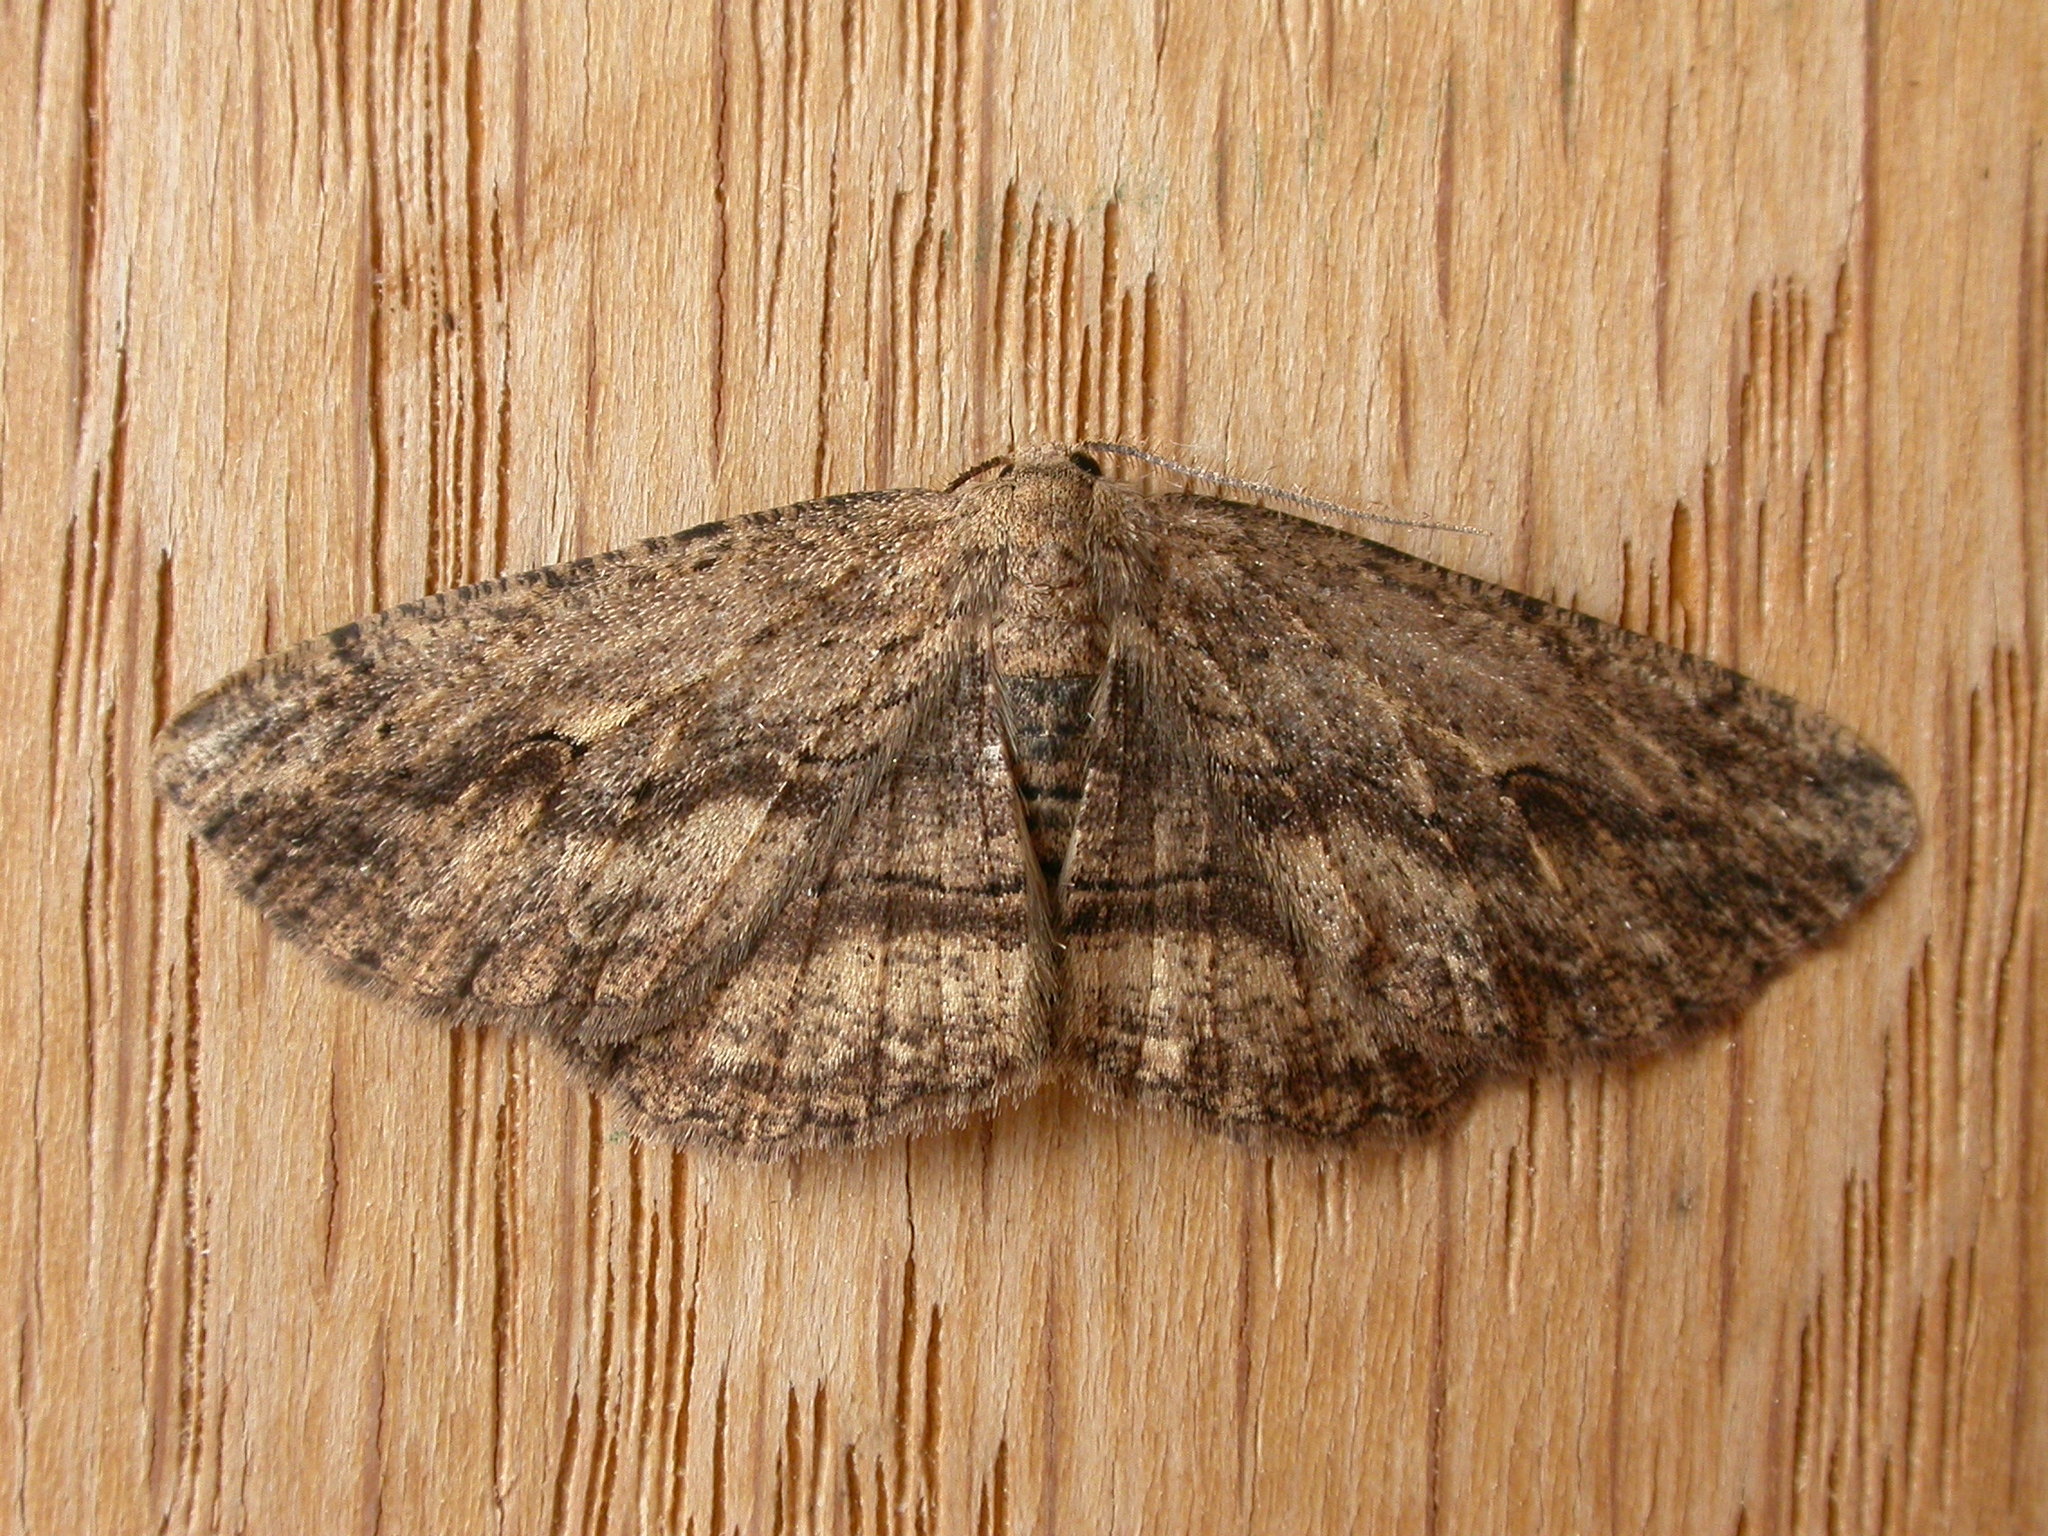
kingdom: Animalia
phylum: Arthropoda
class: Insecta
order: Lepidoptera
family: Geometridae
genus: Ectropis
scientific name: Ectropis excursaria
